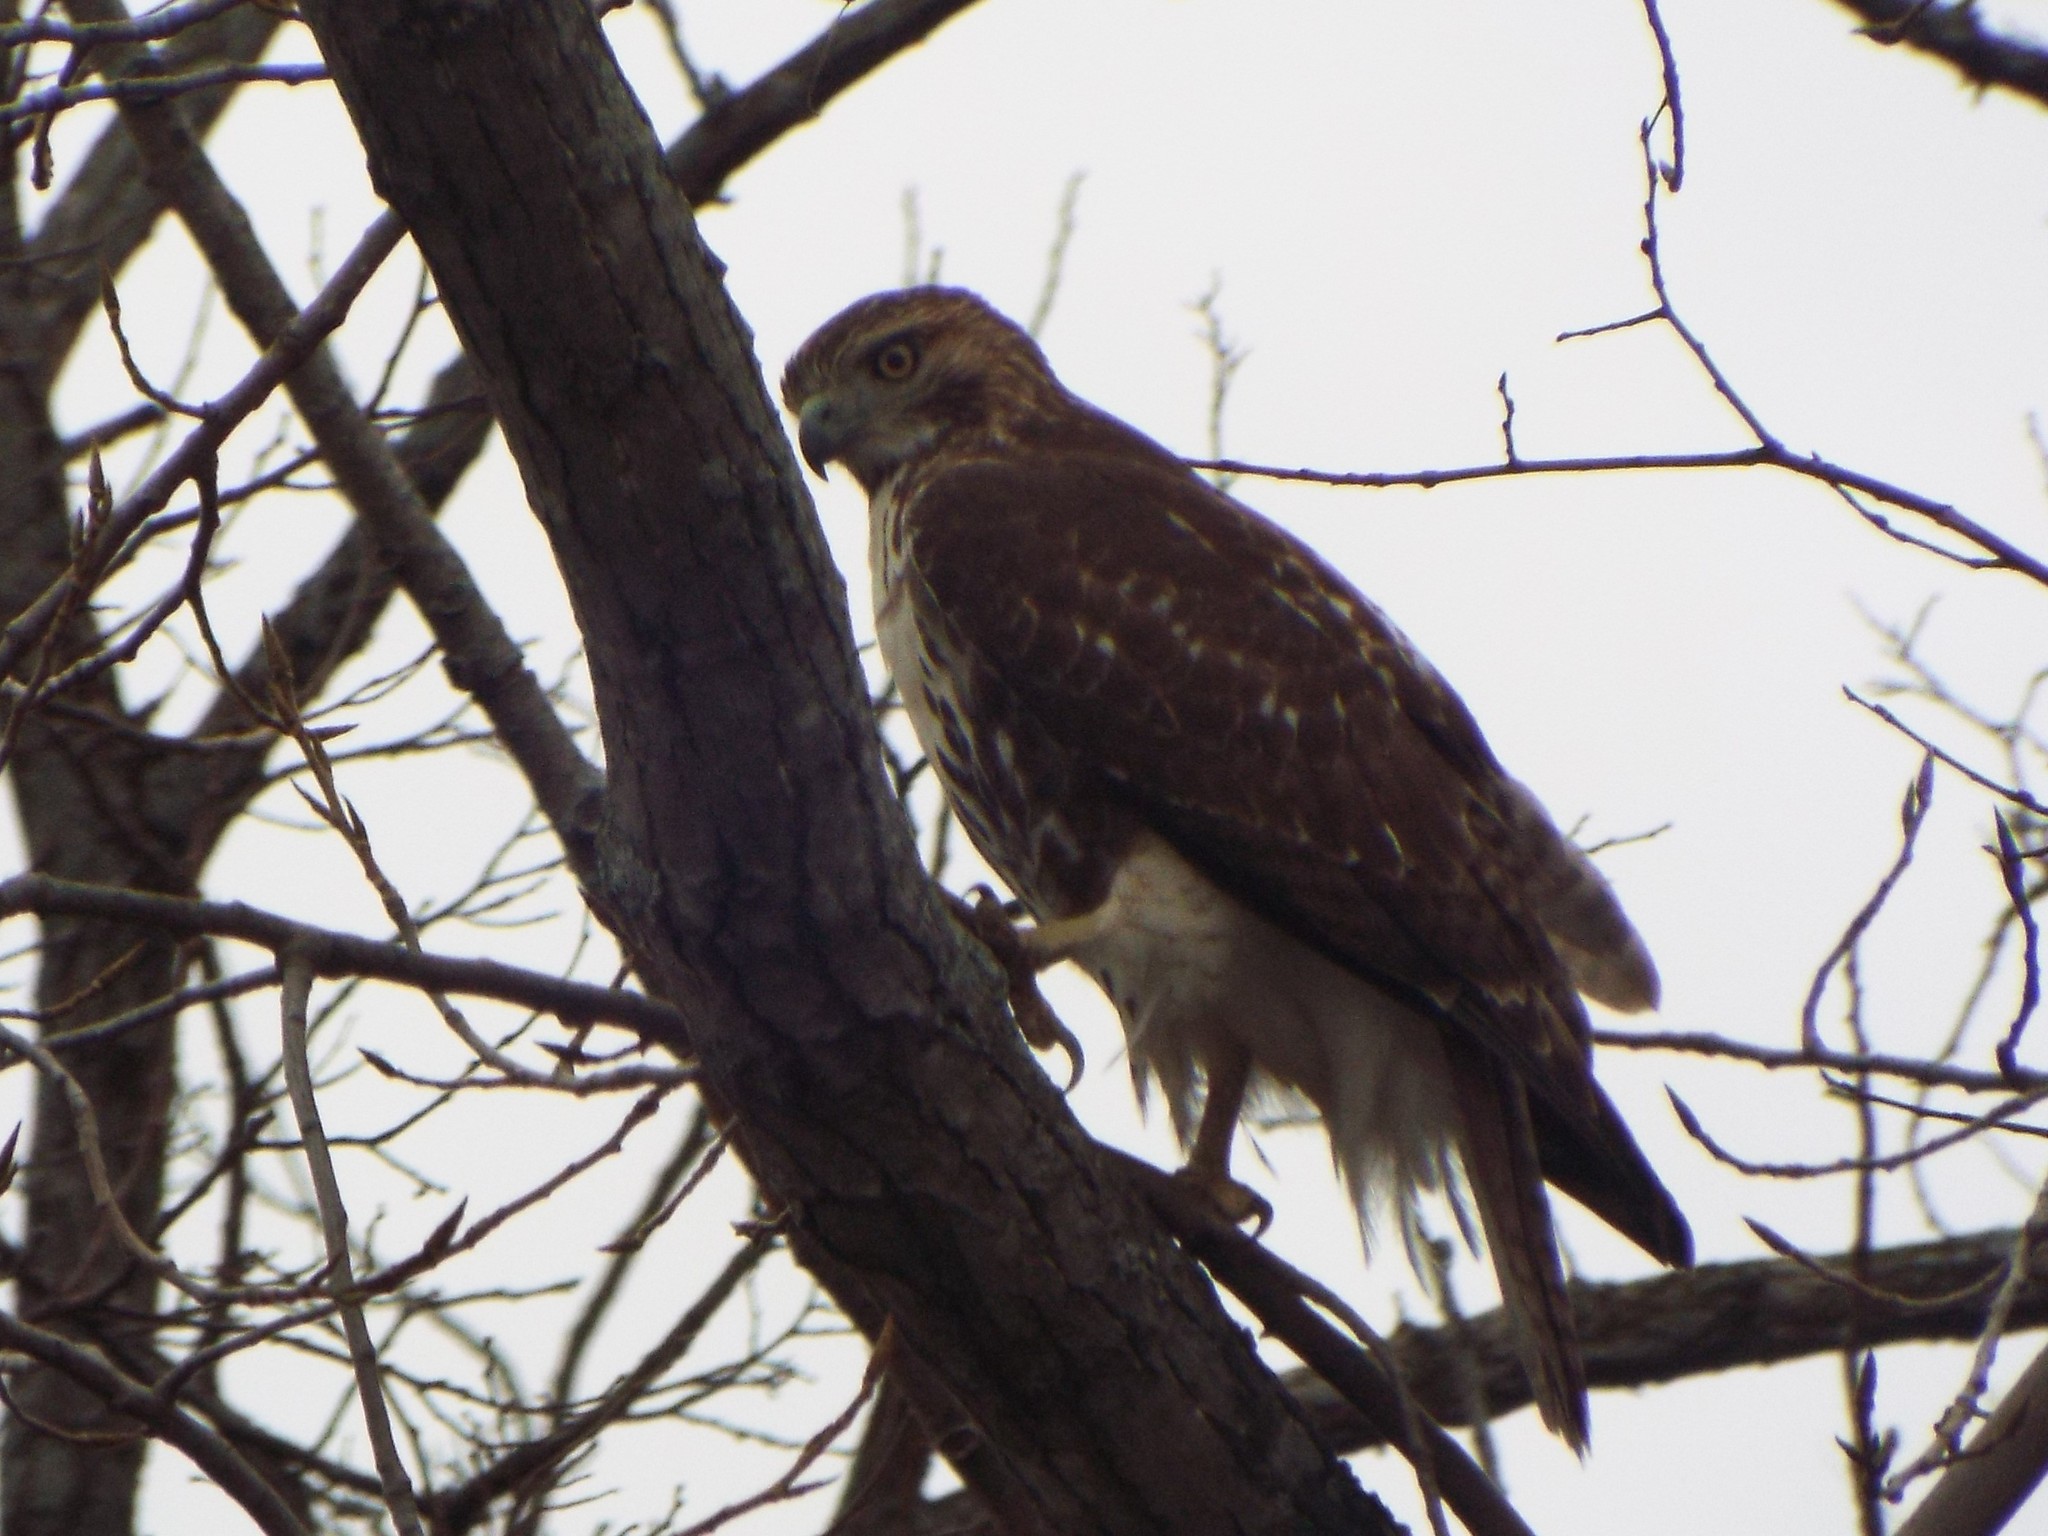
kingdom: Animalia
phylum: Chordata
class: Aves
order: Accipitriformes
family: Accipitridae
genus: Buteo
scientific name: Buteo jamaicensis
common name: Red-tailed hawk
